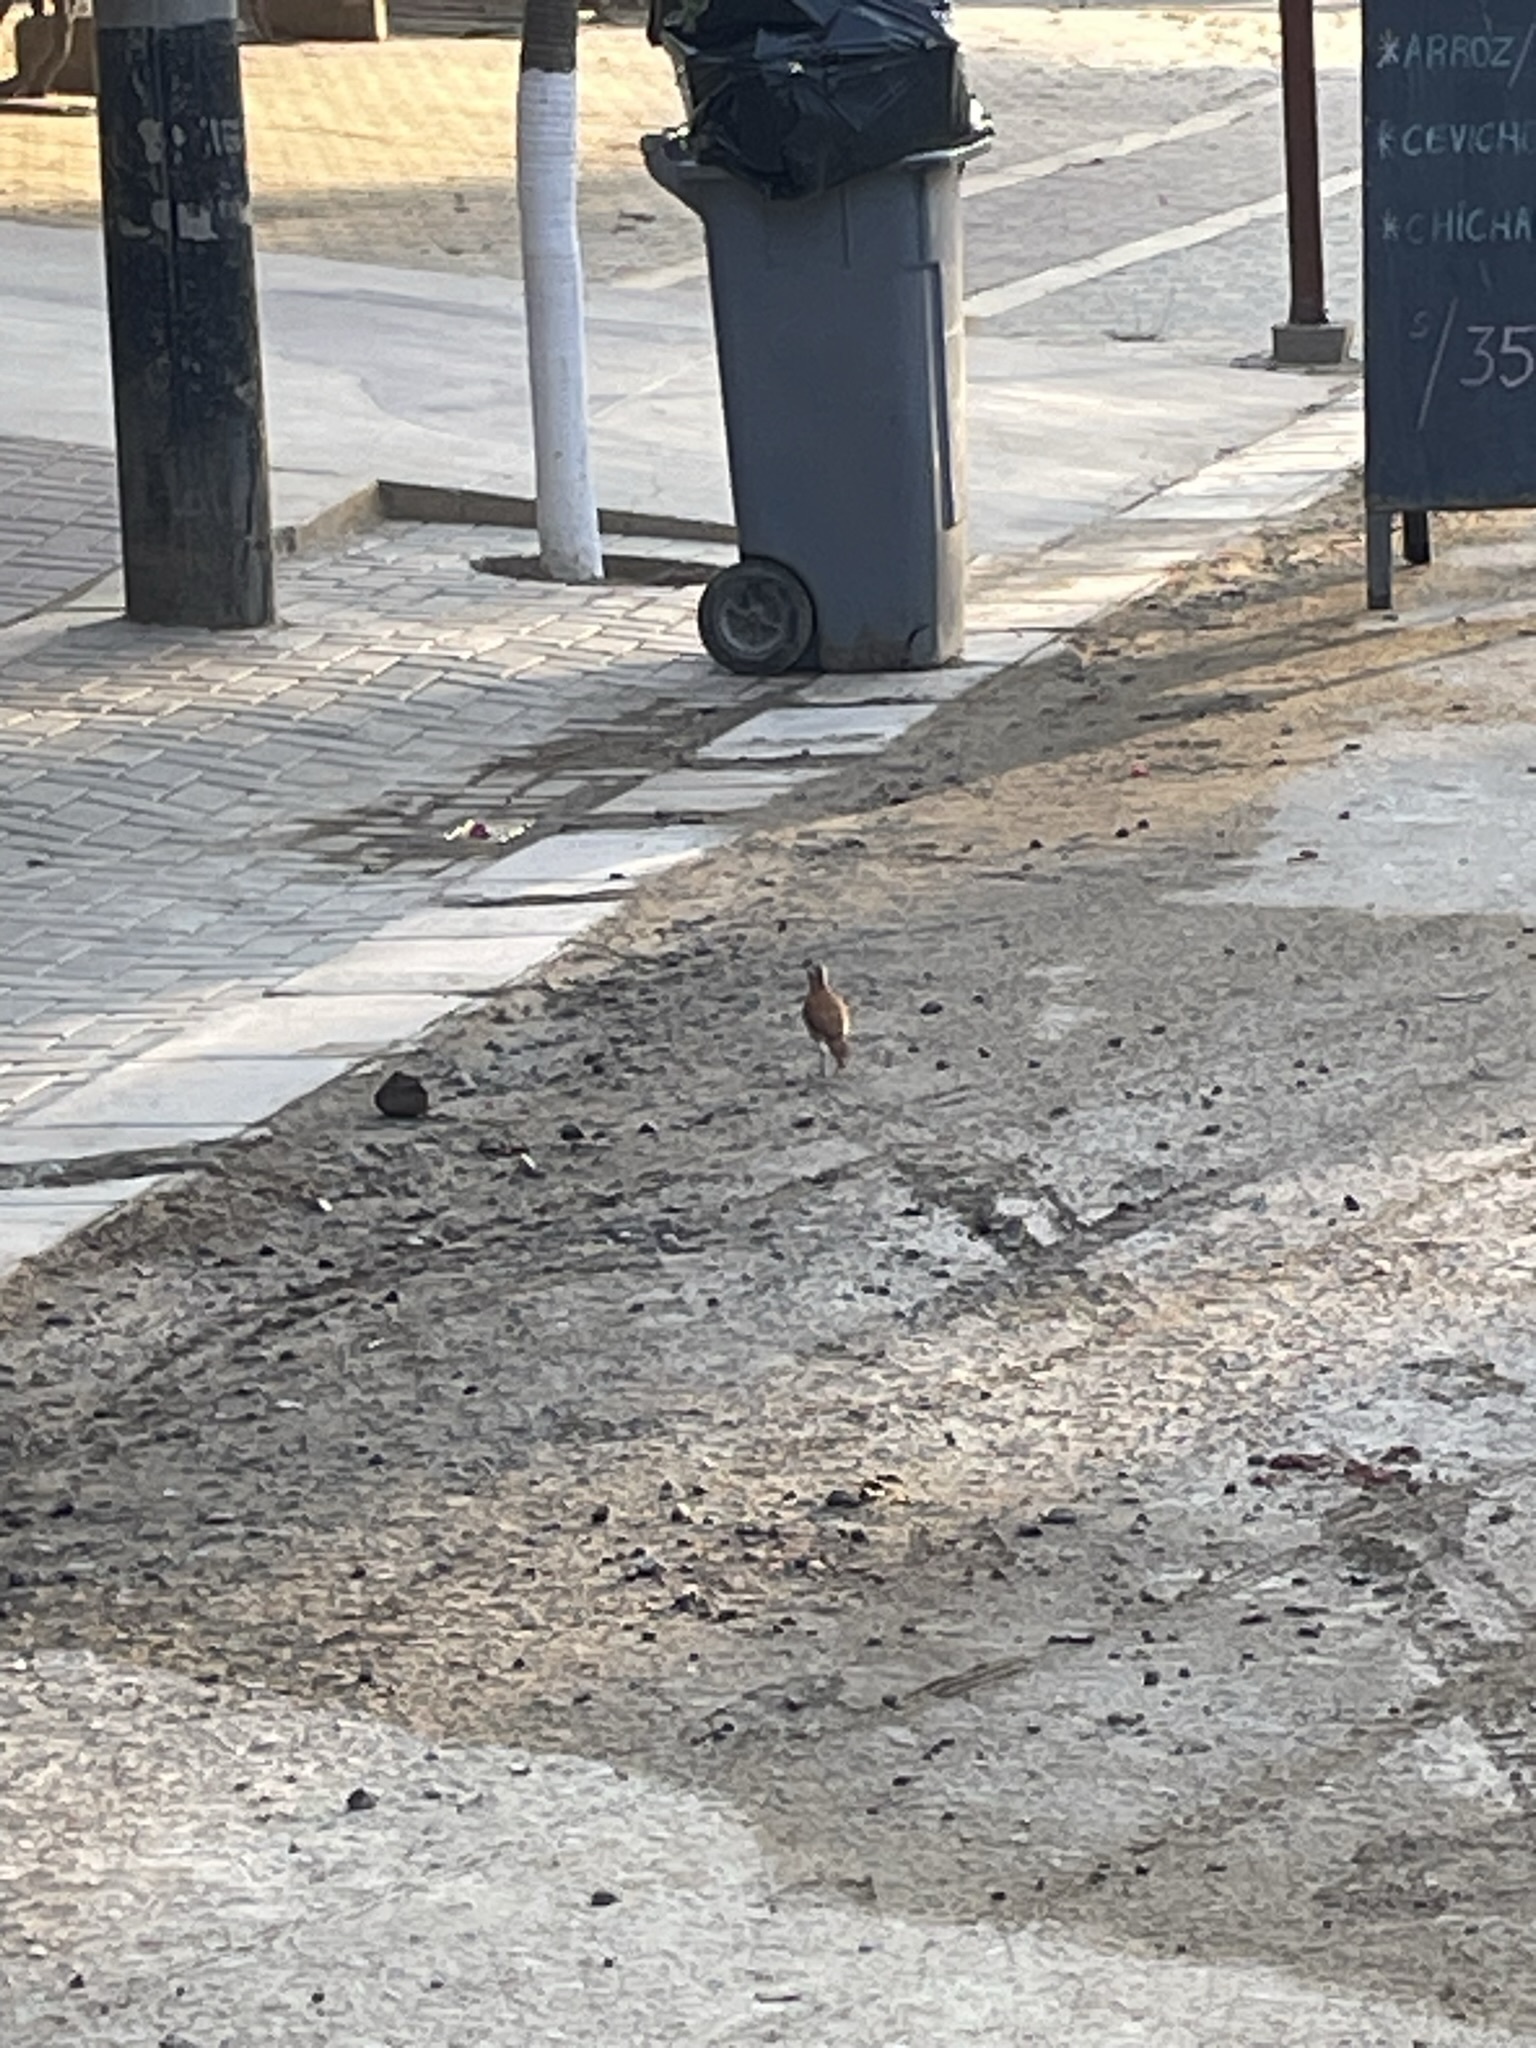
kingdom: Animalia
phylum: Chordata
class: Aves
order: Passeriformes
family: Furnariidae
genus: Furnarius
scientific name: Furnarius leucopus
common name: Pale-legged hornero
